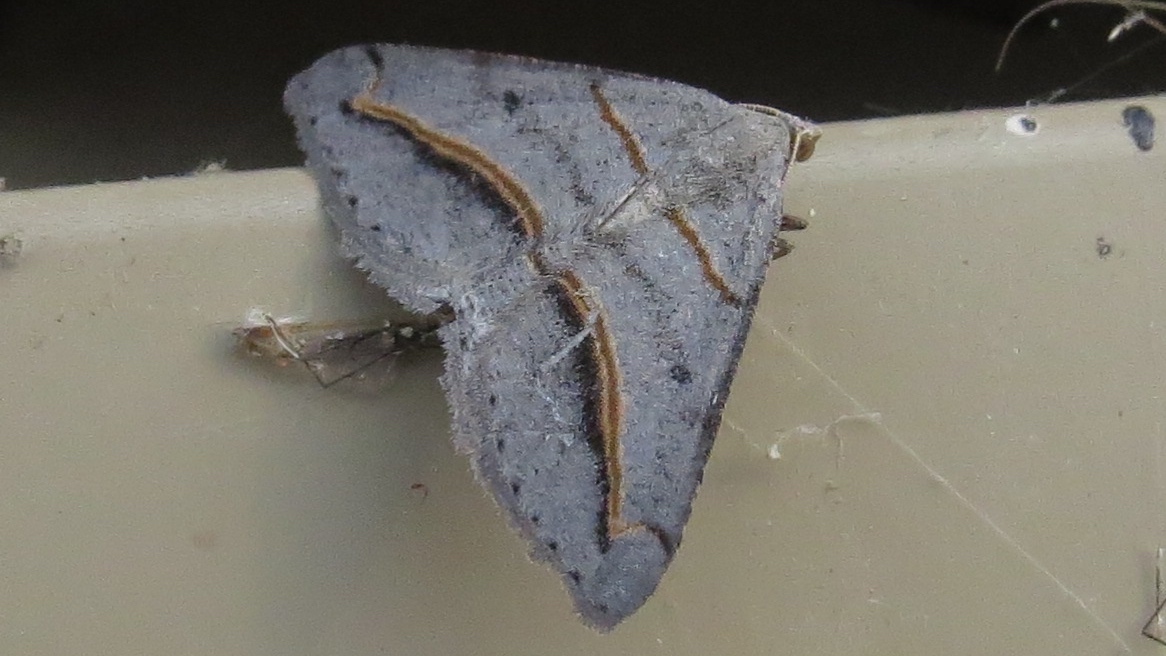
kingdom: Animalia
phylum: Arthropoda
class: Insecta
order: Lepidoptera
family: Geometridae
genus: Digrammia
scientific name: Digrammia mellistrigata
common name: Yellow-lined angle
